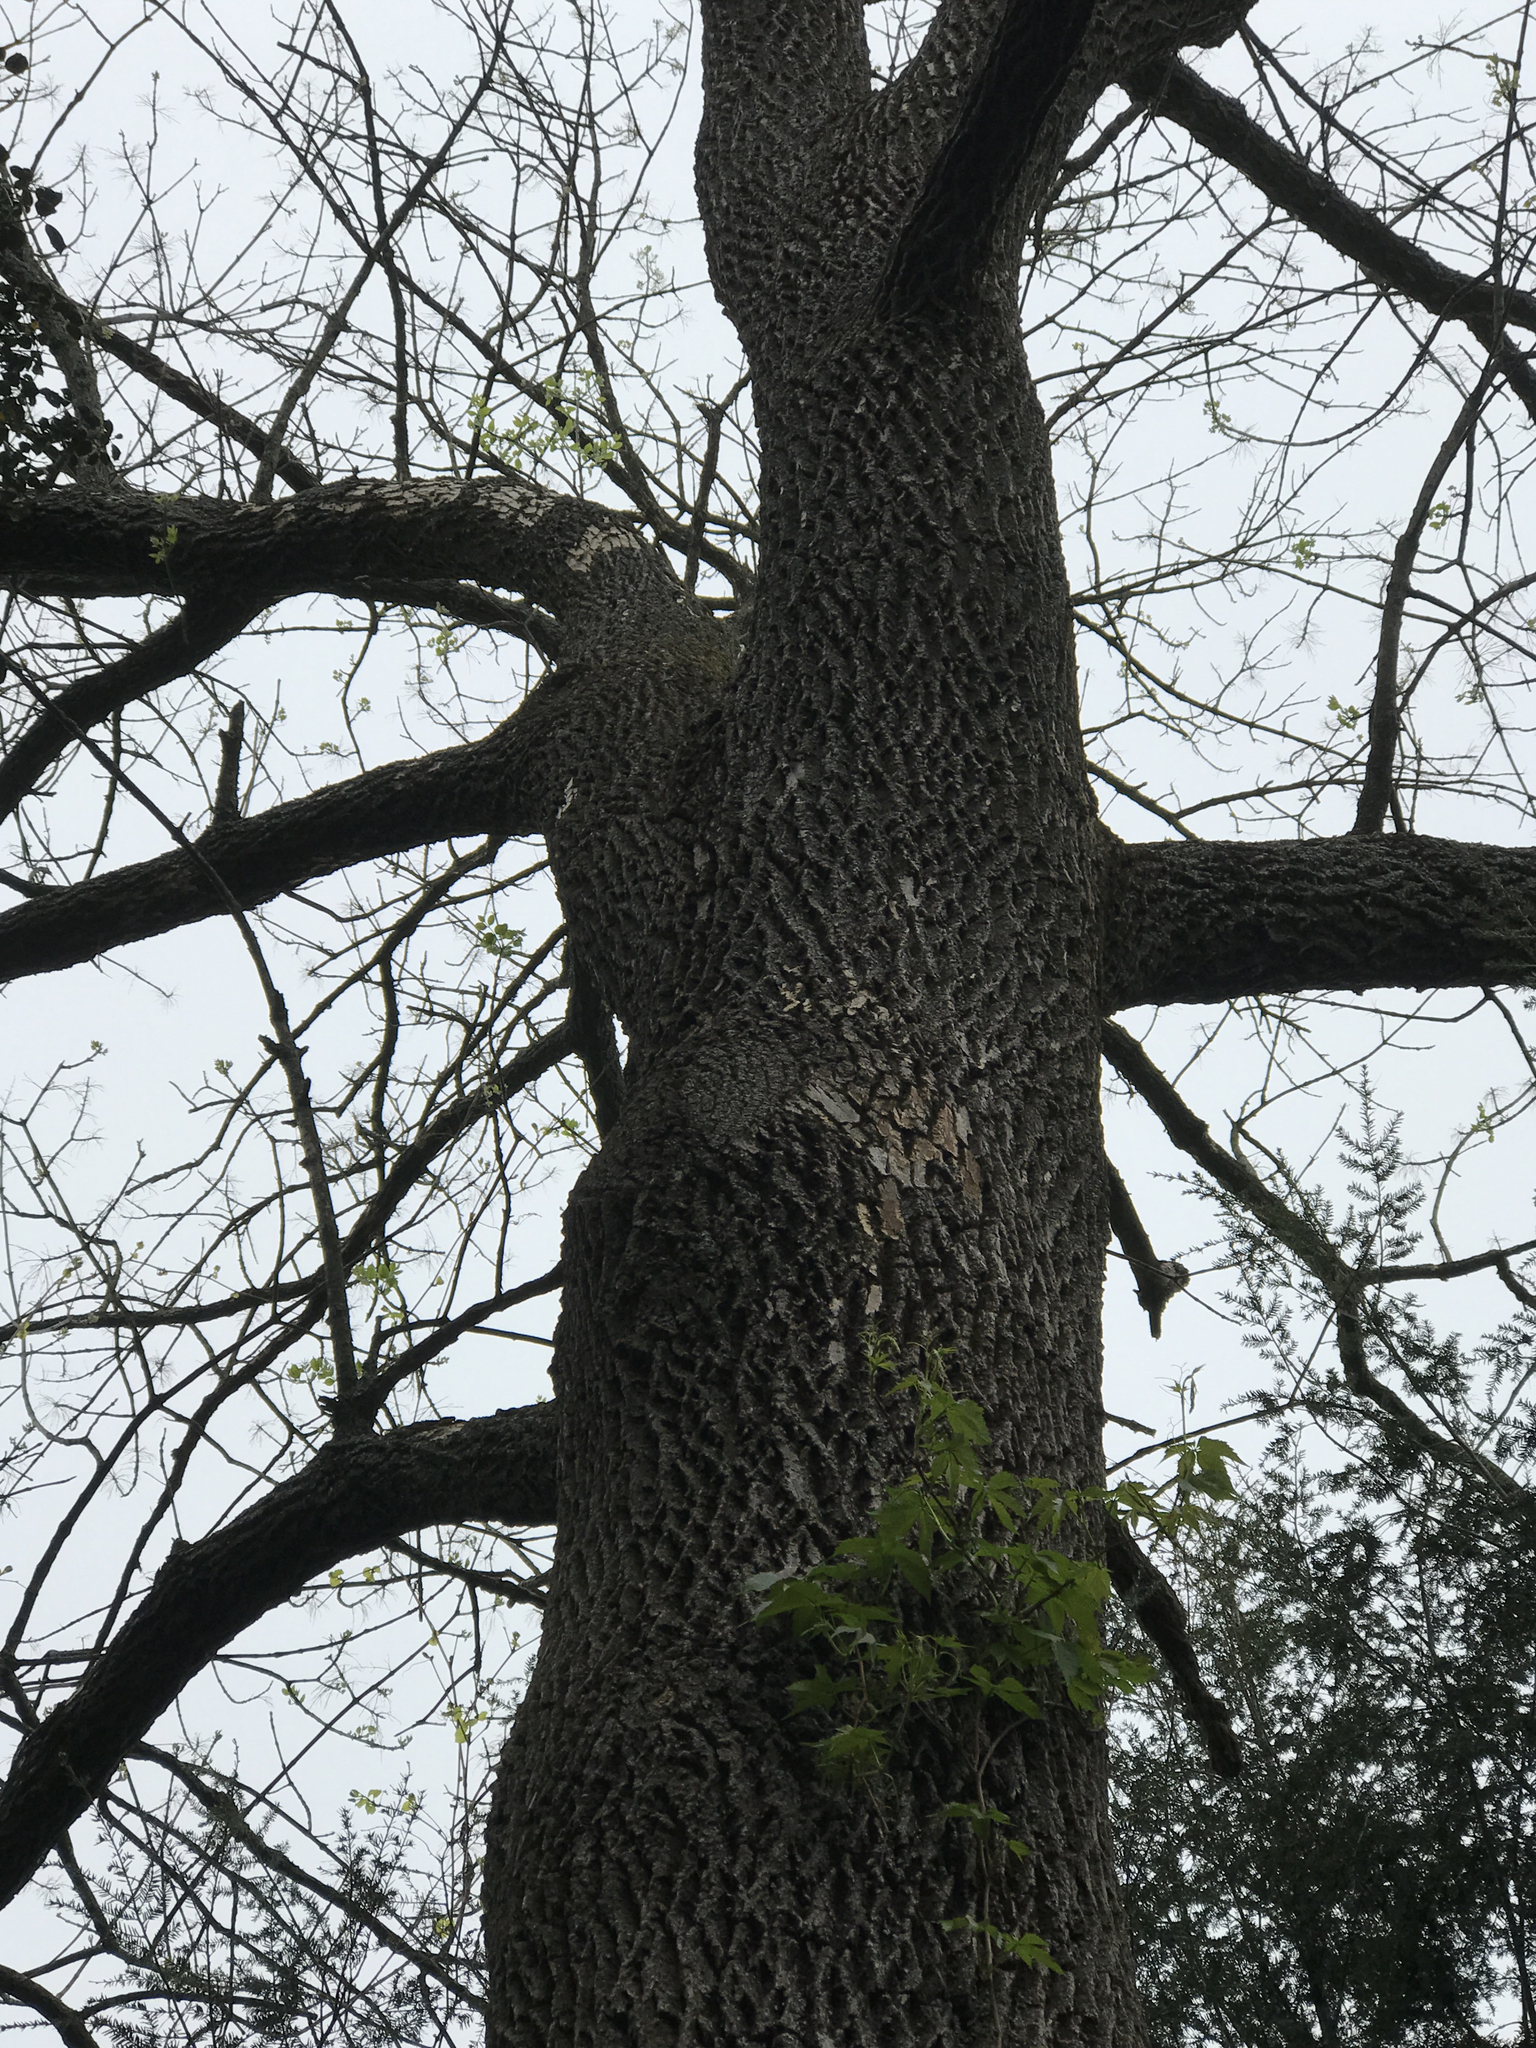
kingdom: Animalia
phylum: Arthropoda
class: Insecta
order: Coleoptera
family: Buprestidae
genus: Agrilus
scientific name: Agrilus planipennis
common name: Emerald ash borer
